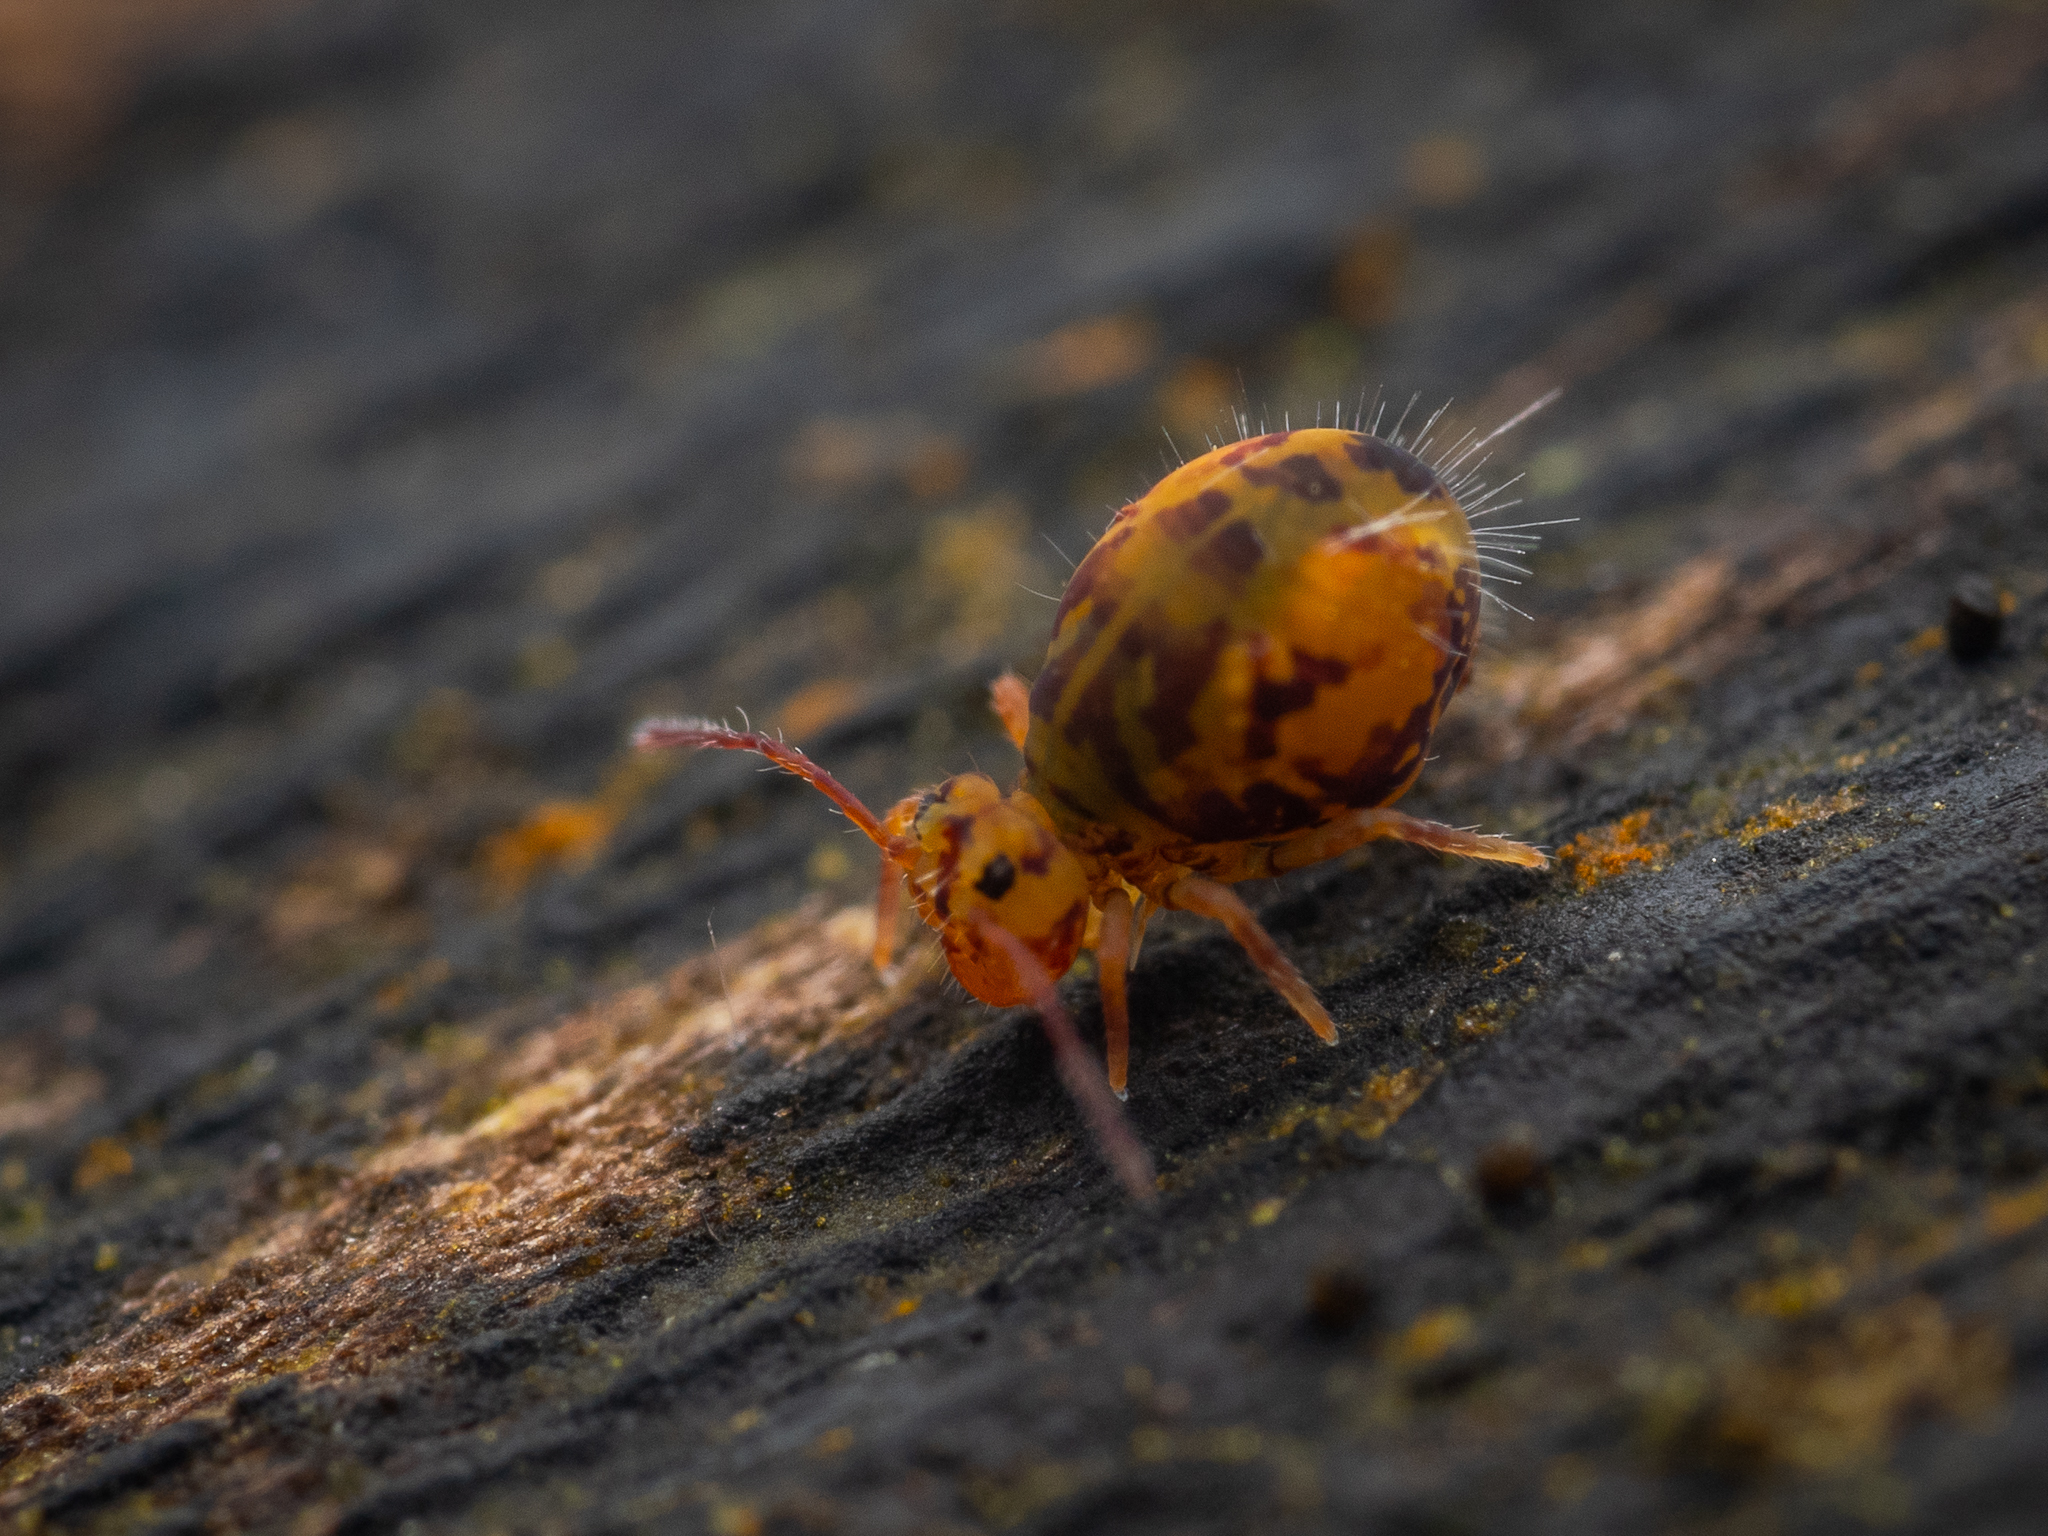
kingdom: Animalia
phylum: Arthropoda
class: Collembola
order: Symphypleona
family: Dicyrtomidae
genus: Dicyrtomina
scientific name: Dicyrtomina ornata
